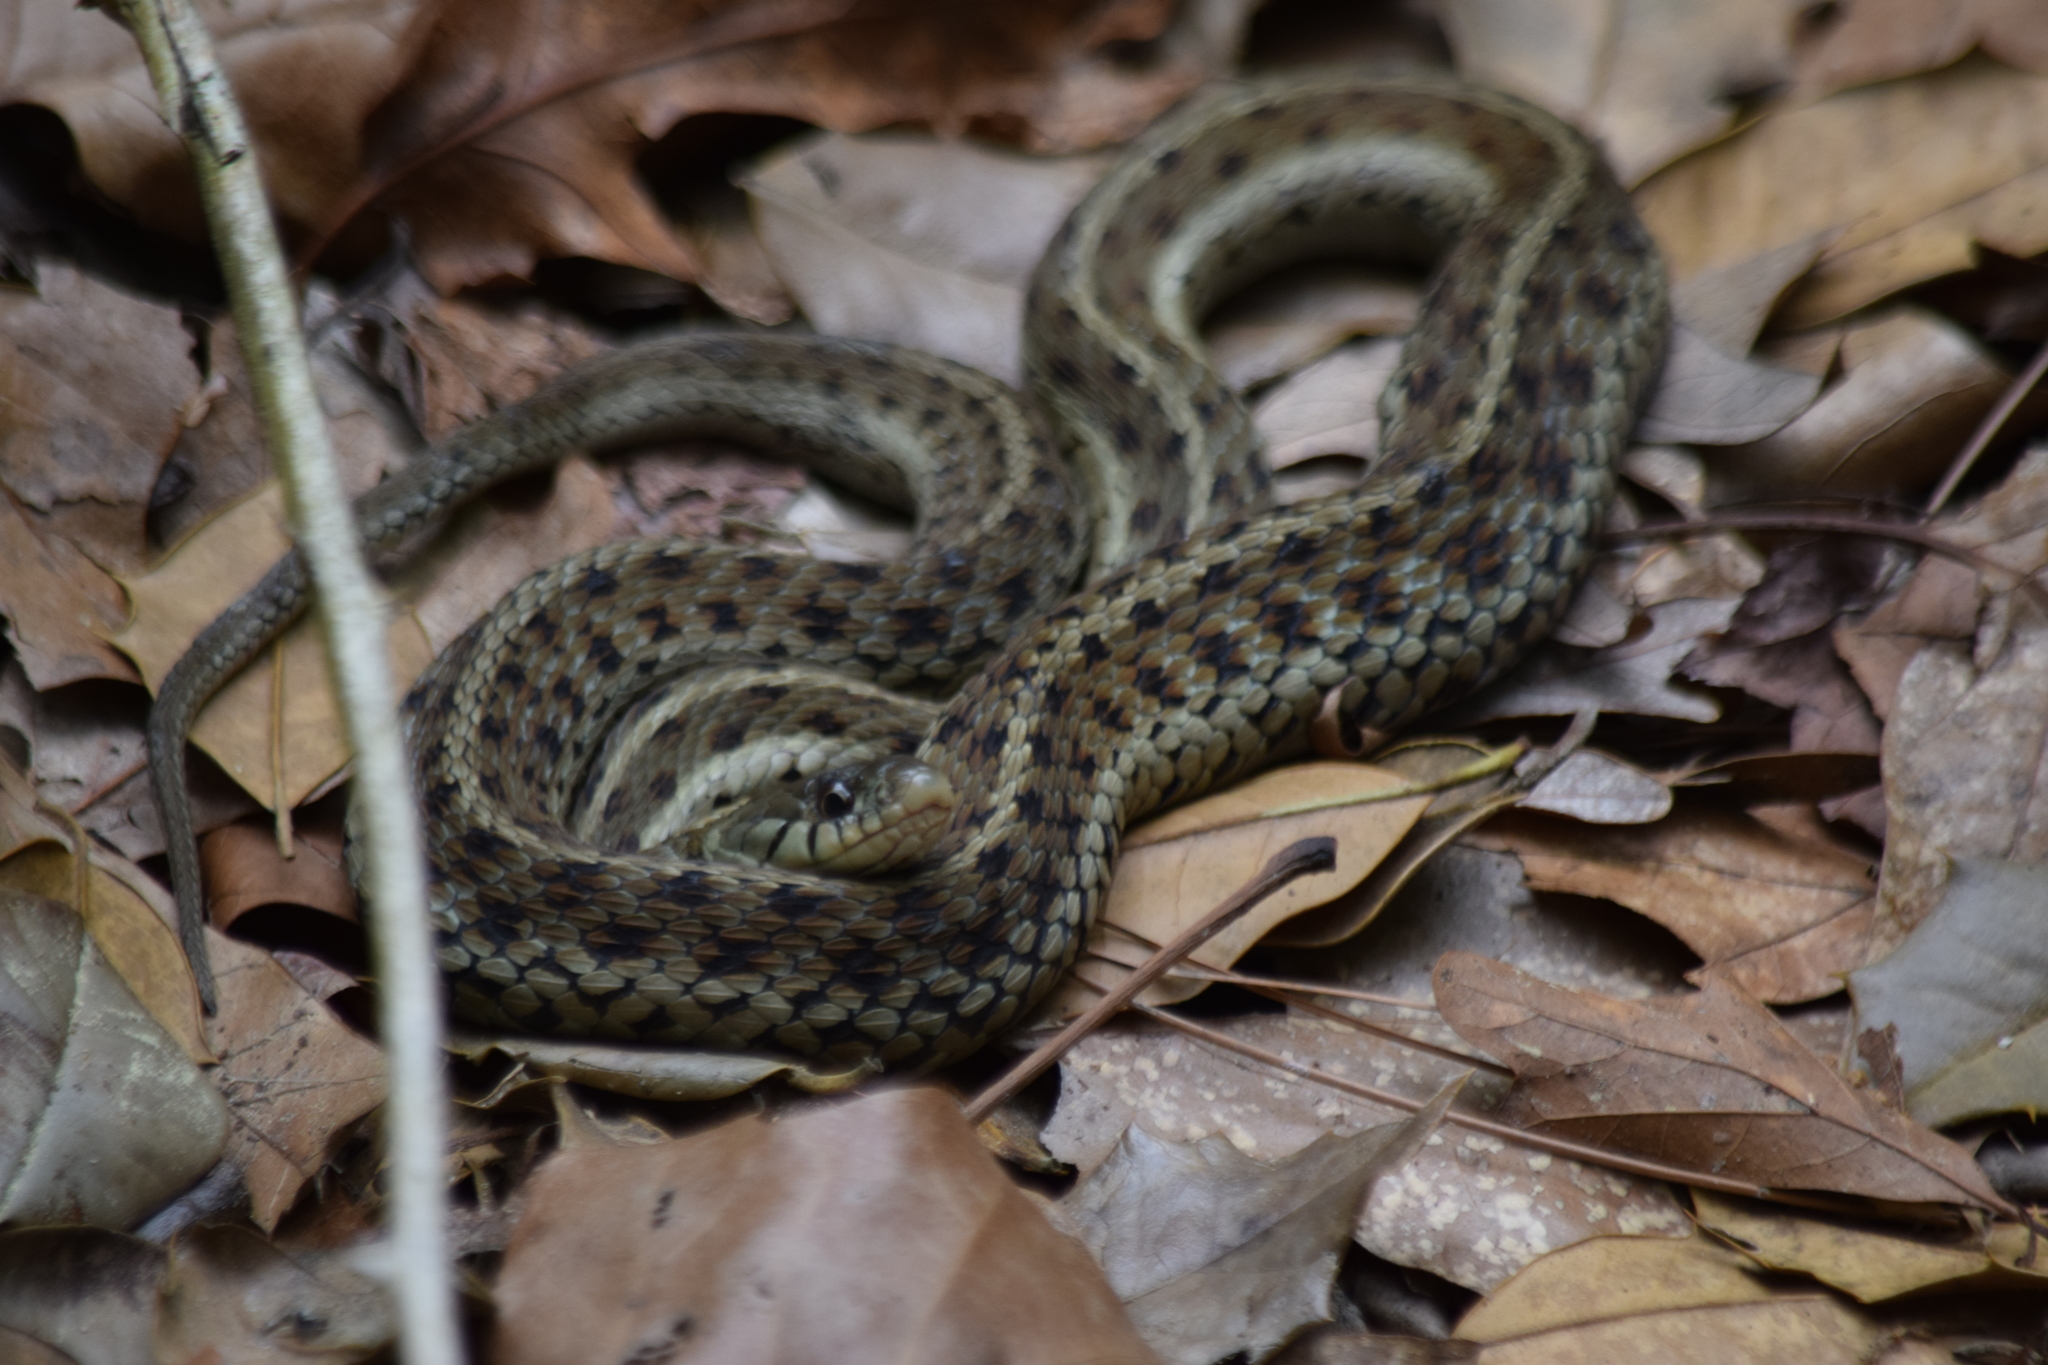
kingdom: Animalia
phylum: Chordata
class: Squamata
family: Colubridae
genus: Thamnophis
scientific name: Thamnophis sirtalis
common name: Common garter snake
